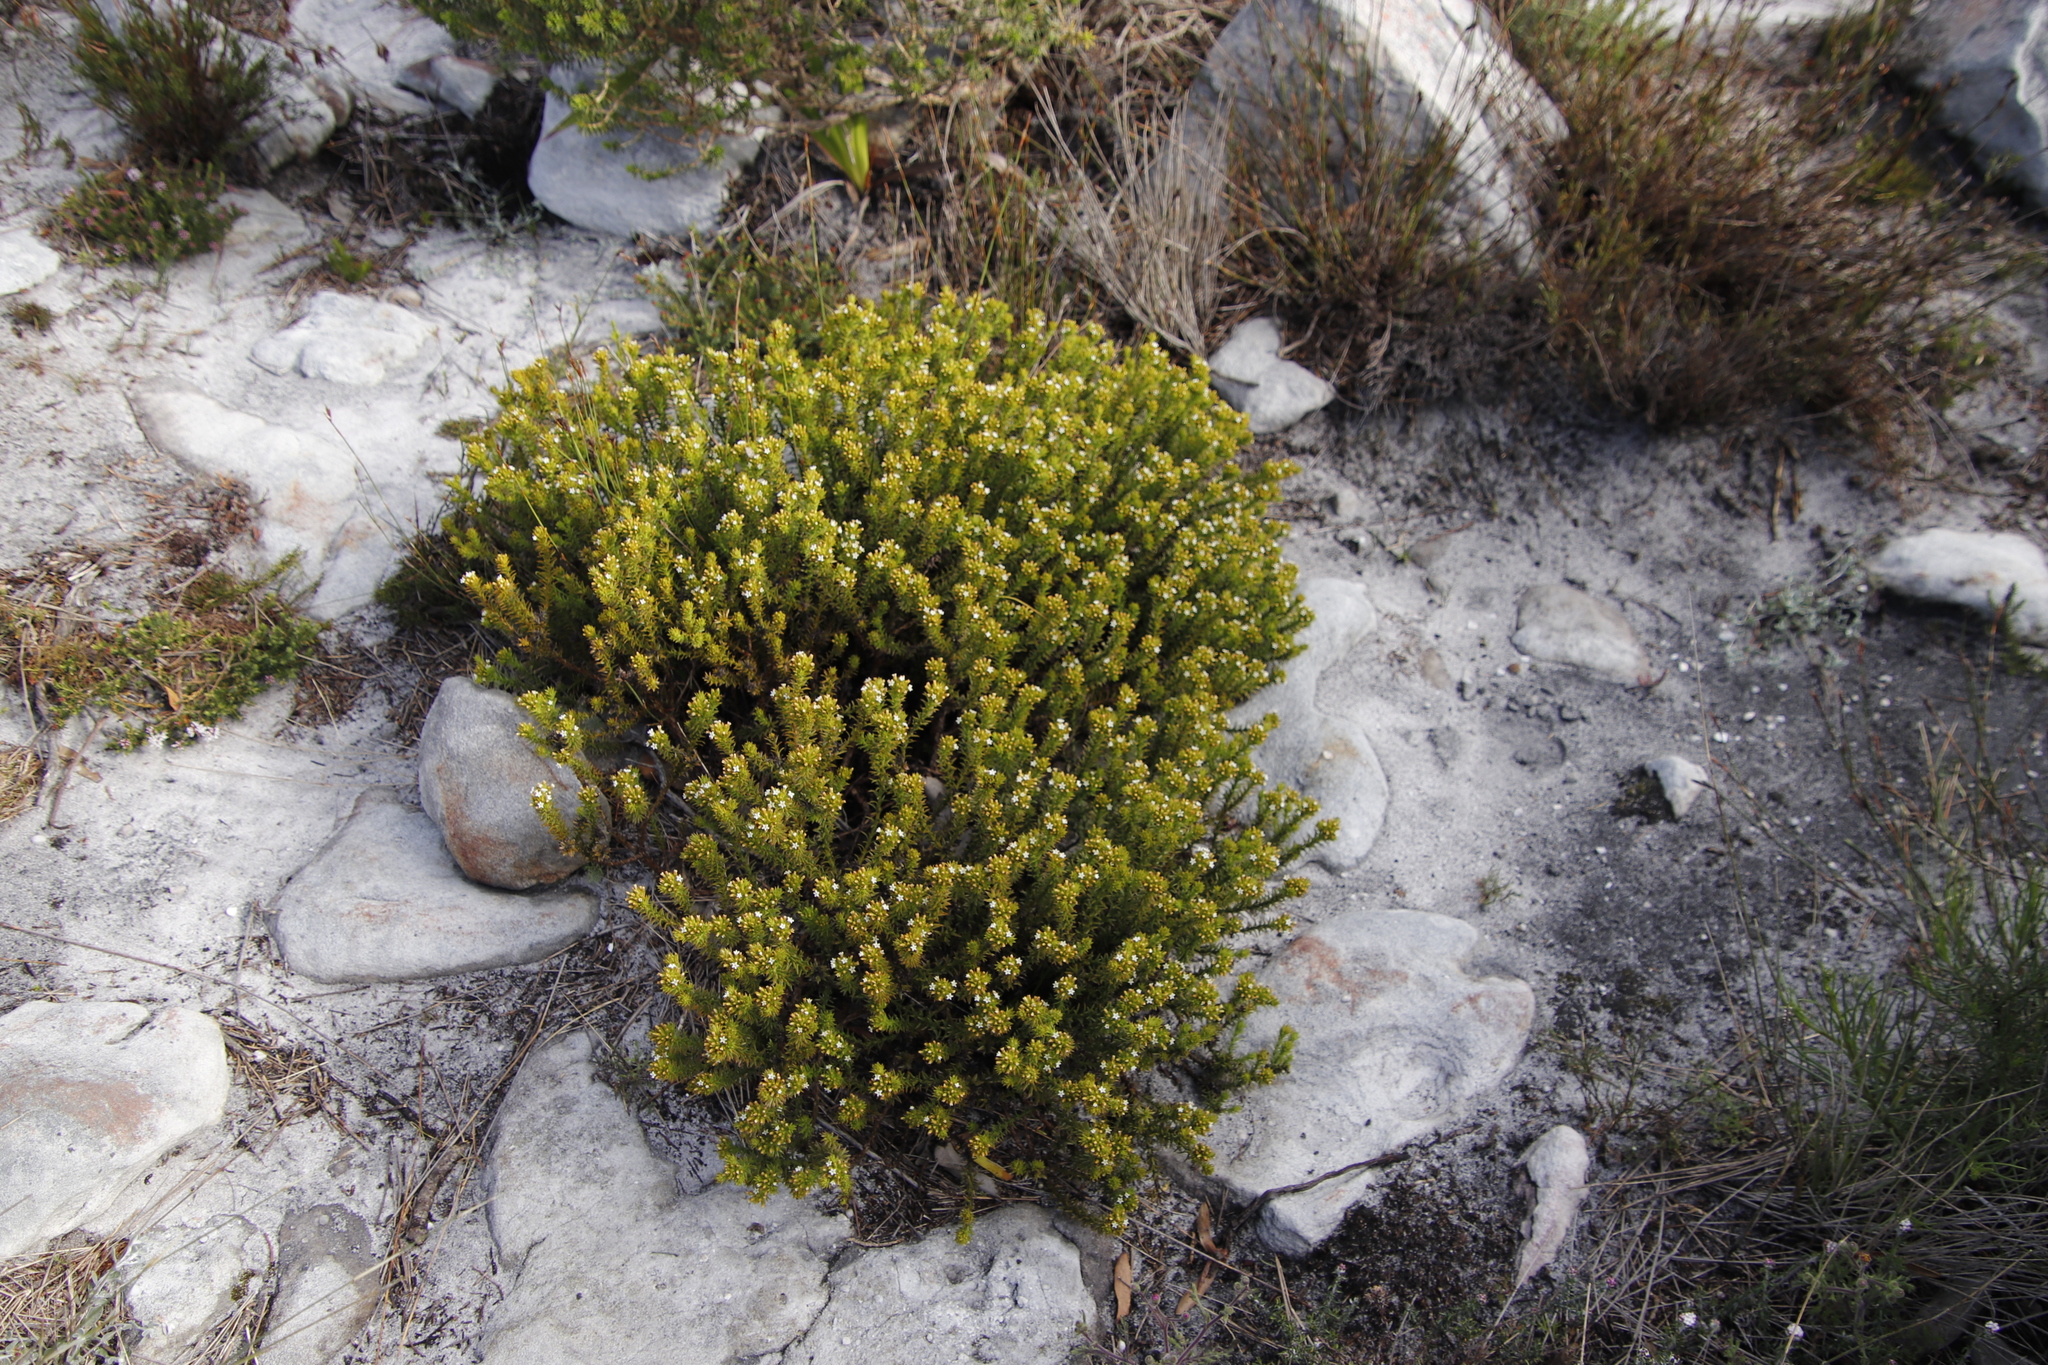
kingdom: Plantae
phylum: Tracheophyta
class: Magnoliopsida
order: Santalales
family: Thesiaceae
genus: Thesium
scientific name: Thesium viridifolium
